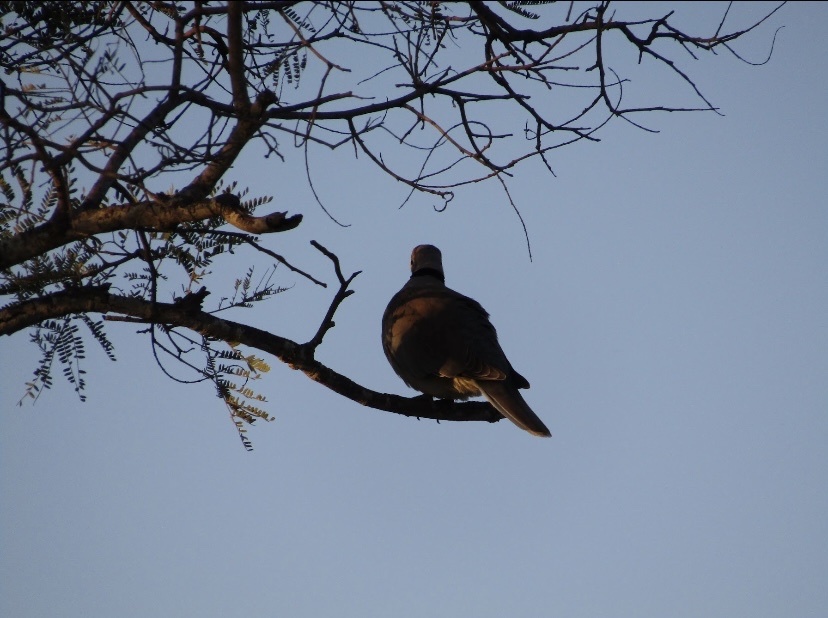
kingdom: Animalia
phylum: Chordata
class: Aves
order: Columbiformes
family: Columbidae
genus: Streptopelia
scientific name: Streptopelia capicola
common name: Ring-necked dove
